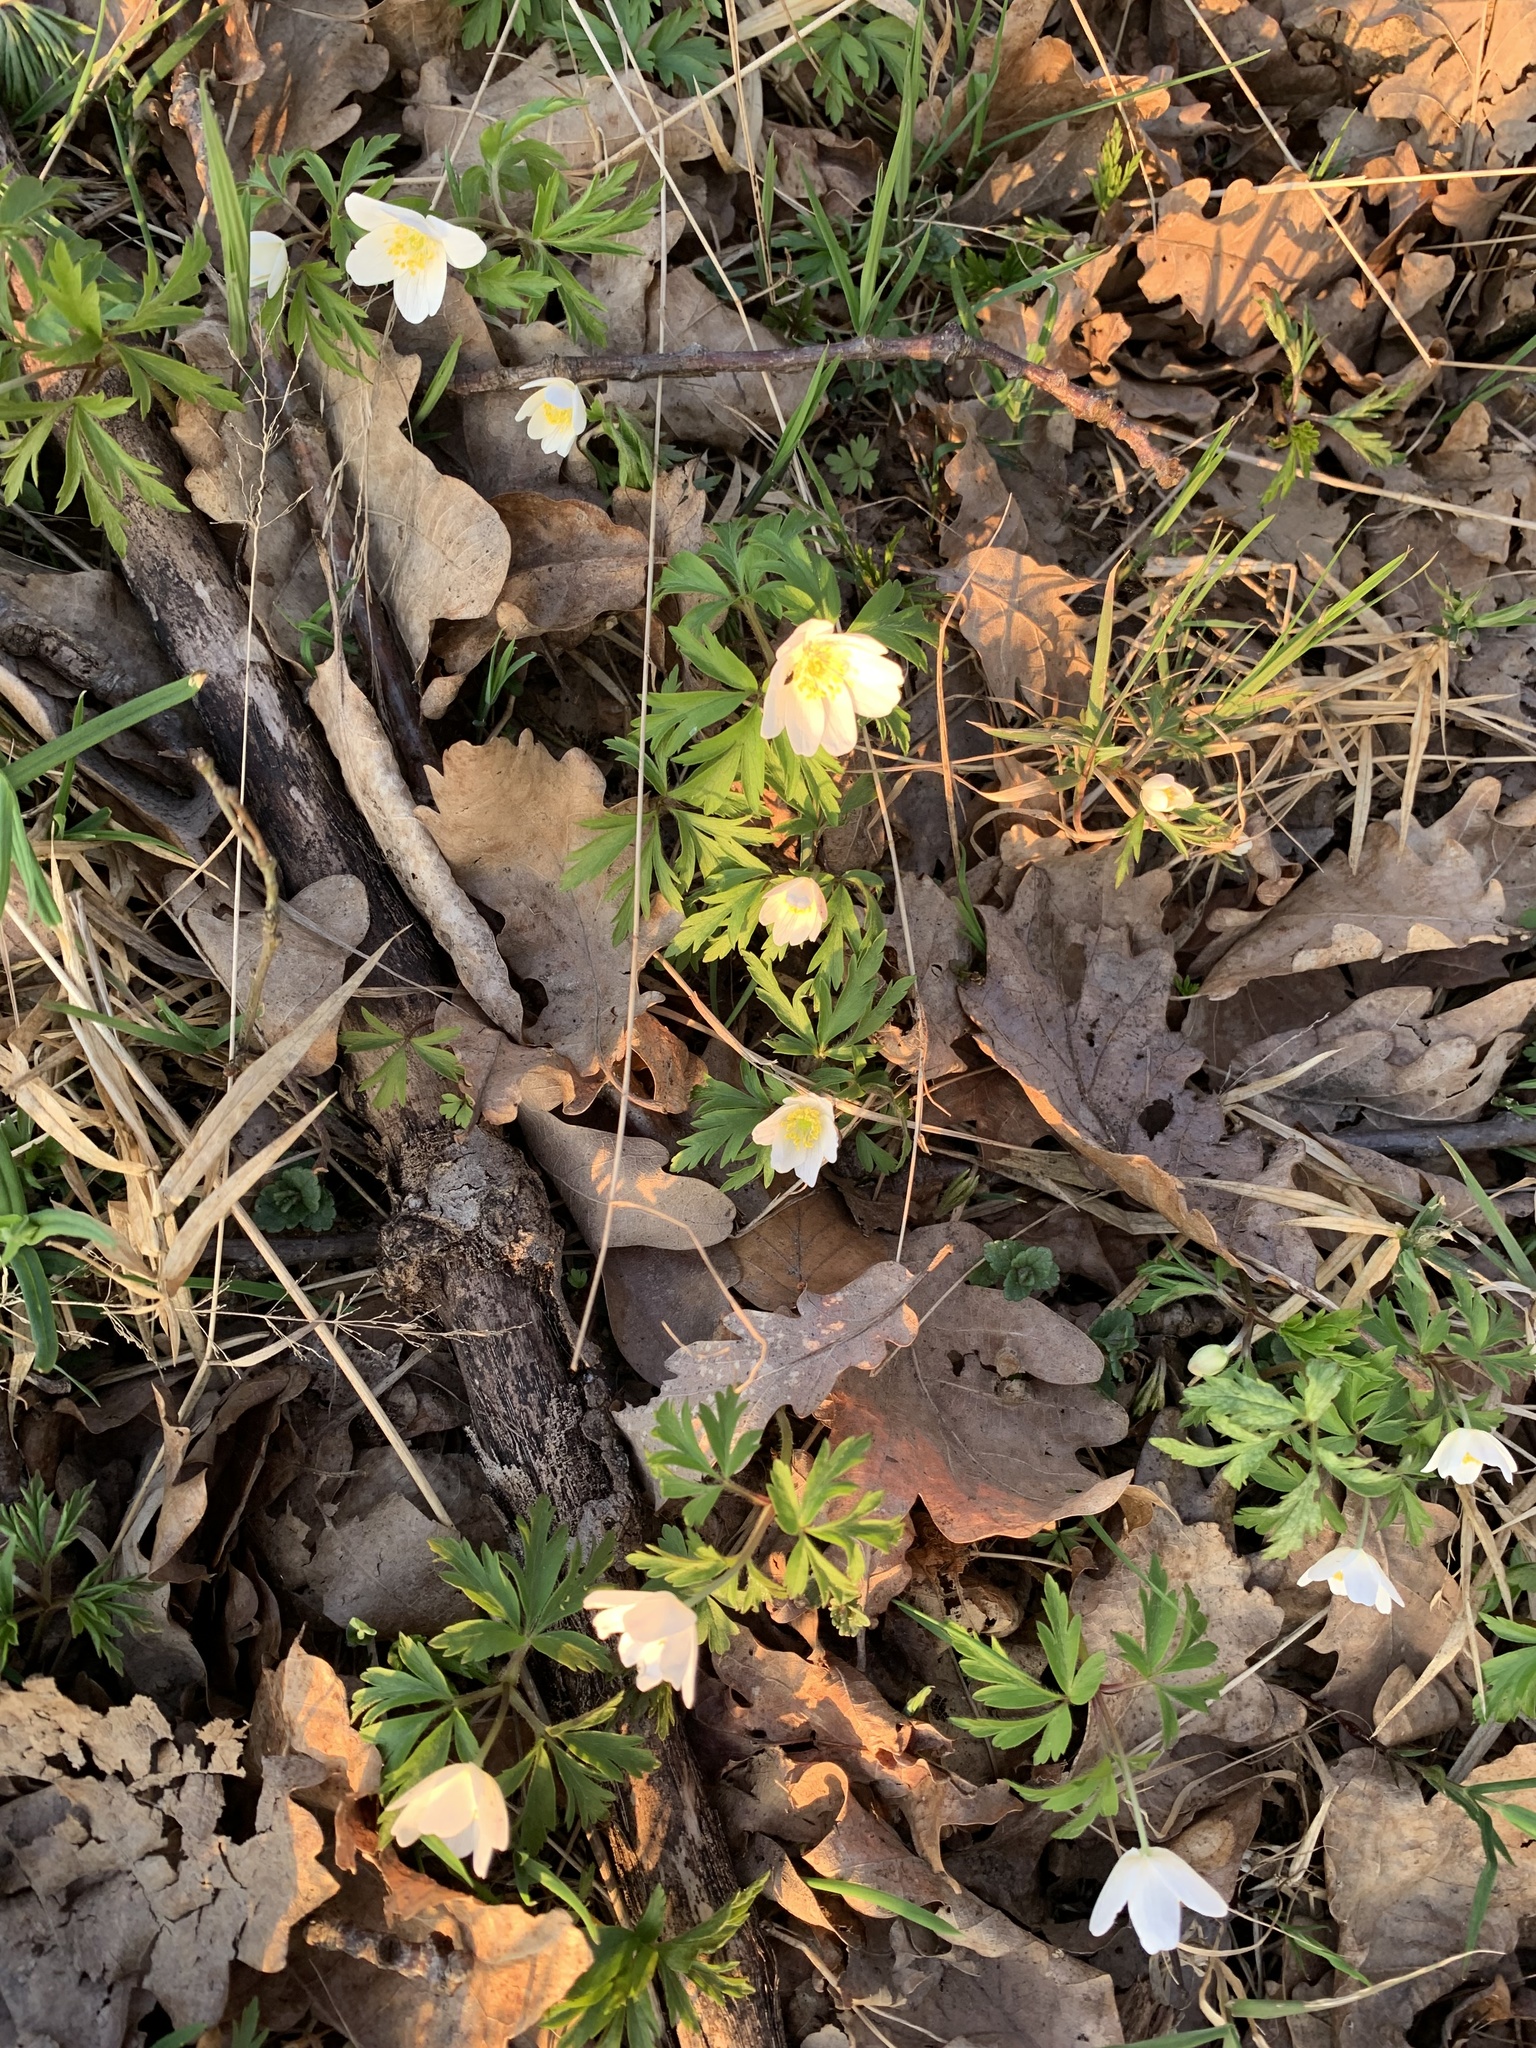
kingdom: Plantae
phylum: Tracheophyta
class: Magnoliopsida
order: Ranunculales
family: Ranunculaceae
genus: Anemone
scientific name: Anemone nemorosa
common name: Wood anemone
